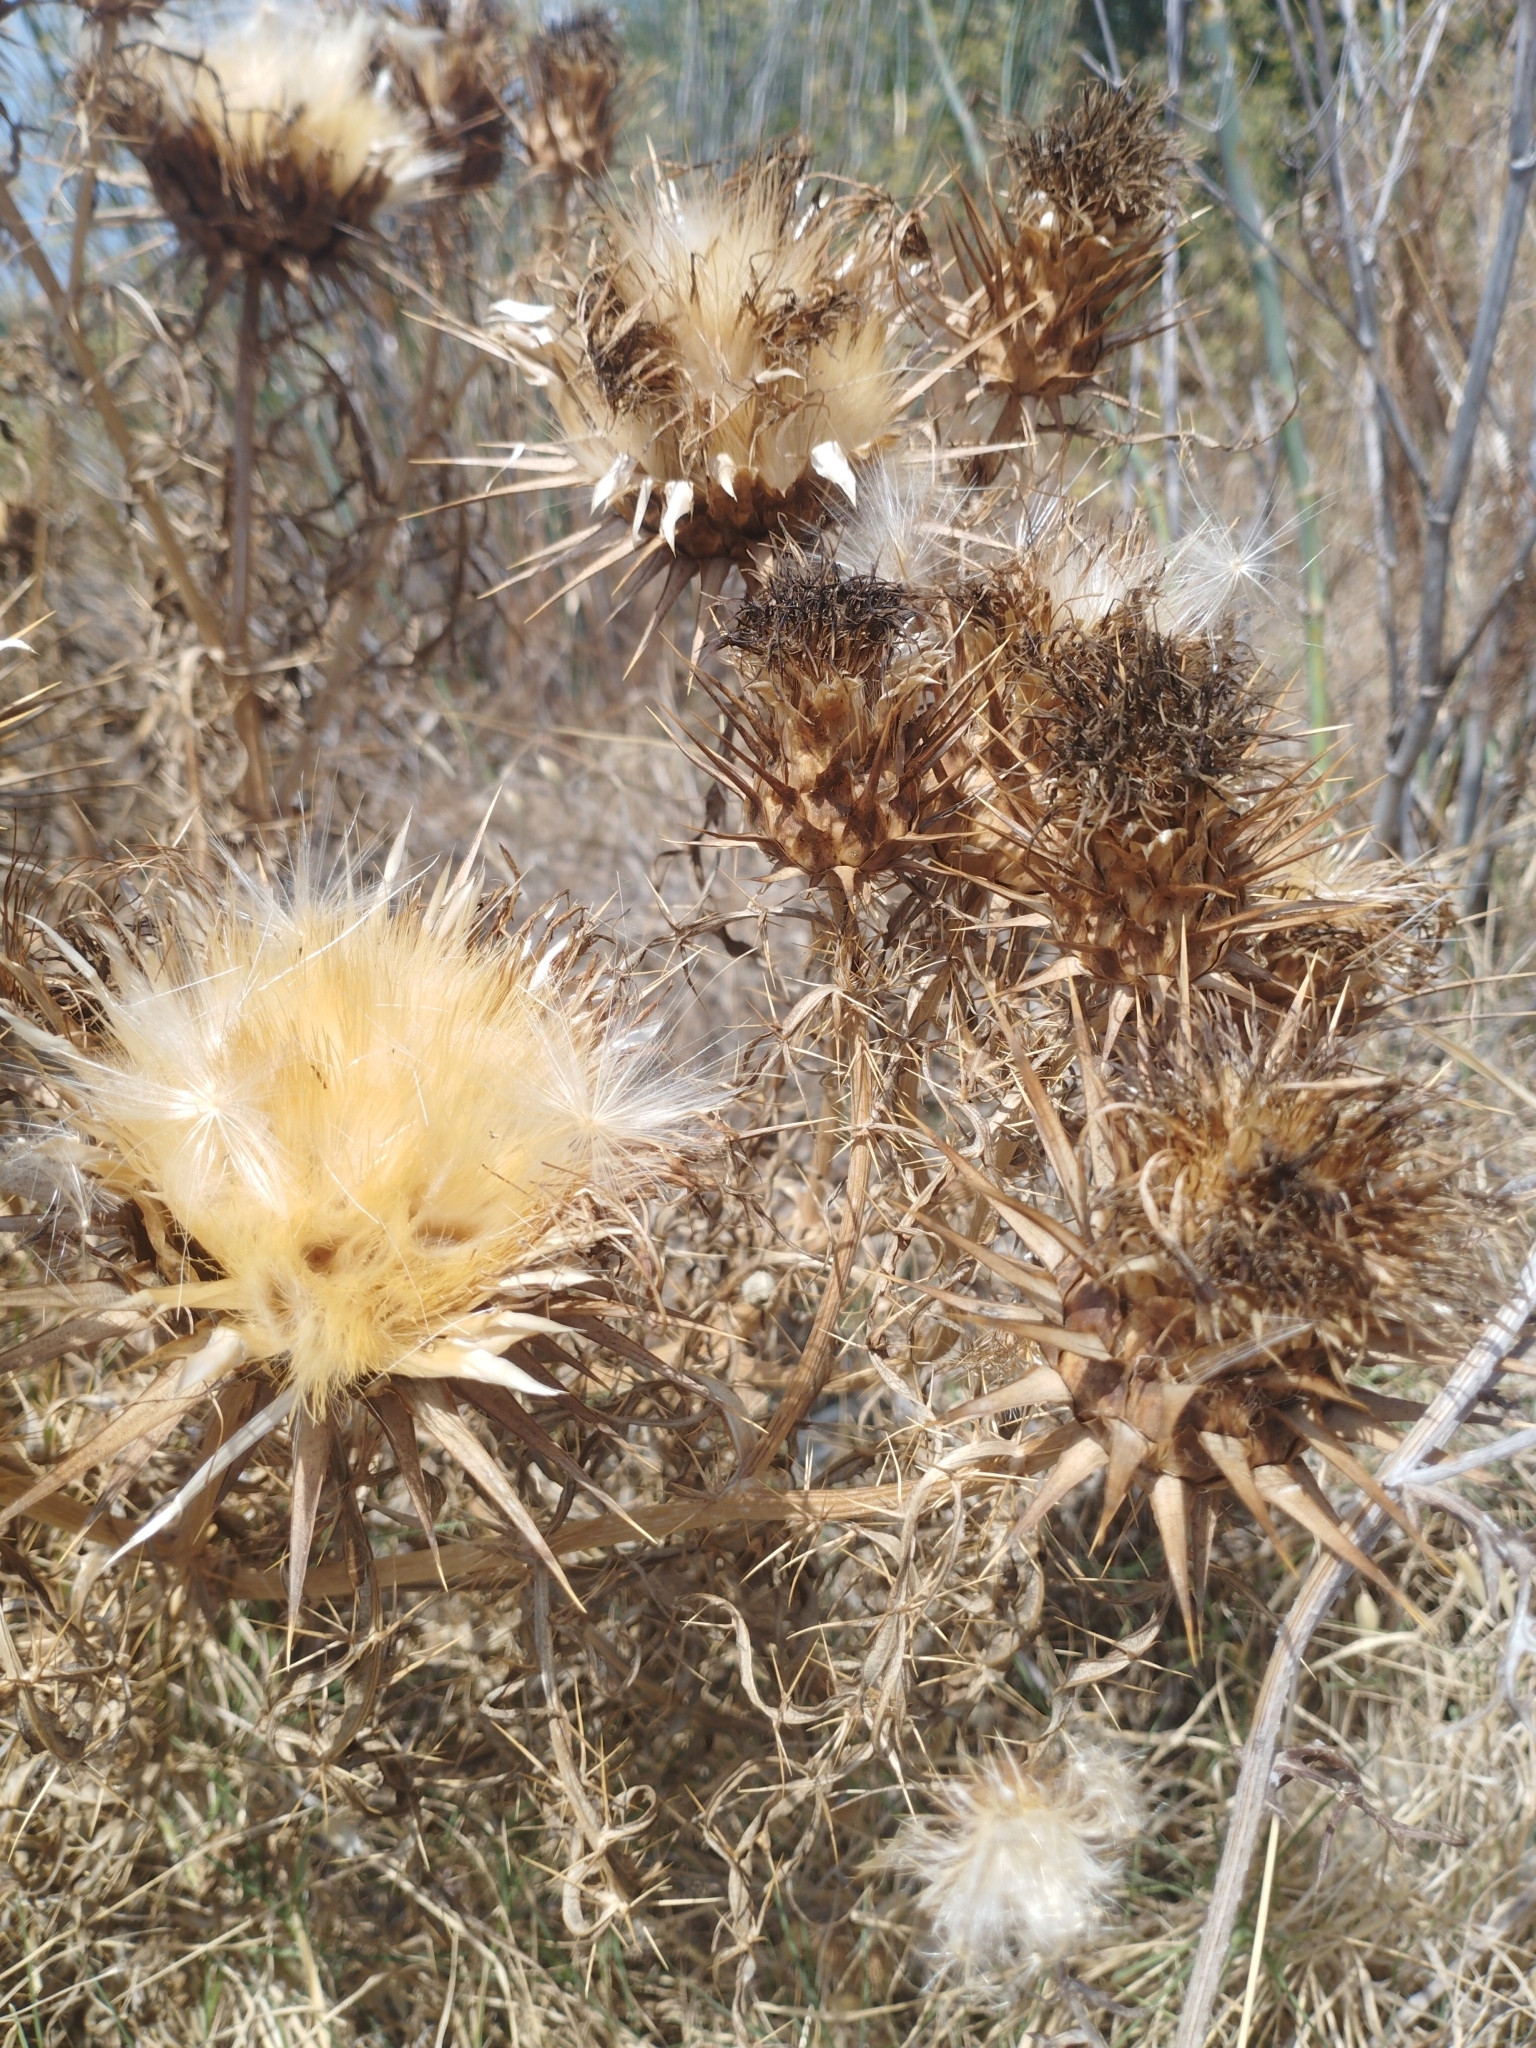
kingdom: Plantae
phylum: Tracheophyta
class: Magnoliopsida
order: Asterales
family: Asteraceae
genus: Cynara
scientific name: Cynara cardunculus
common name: Globe artichoke
